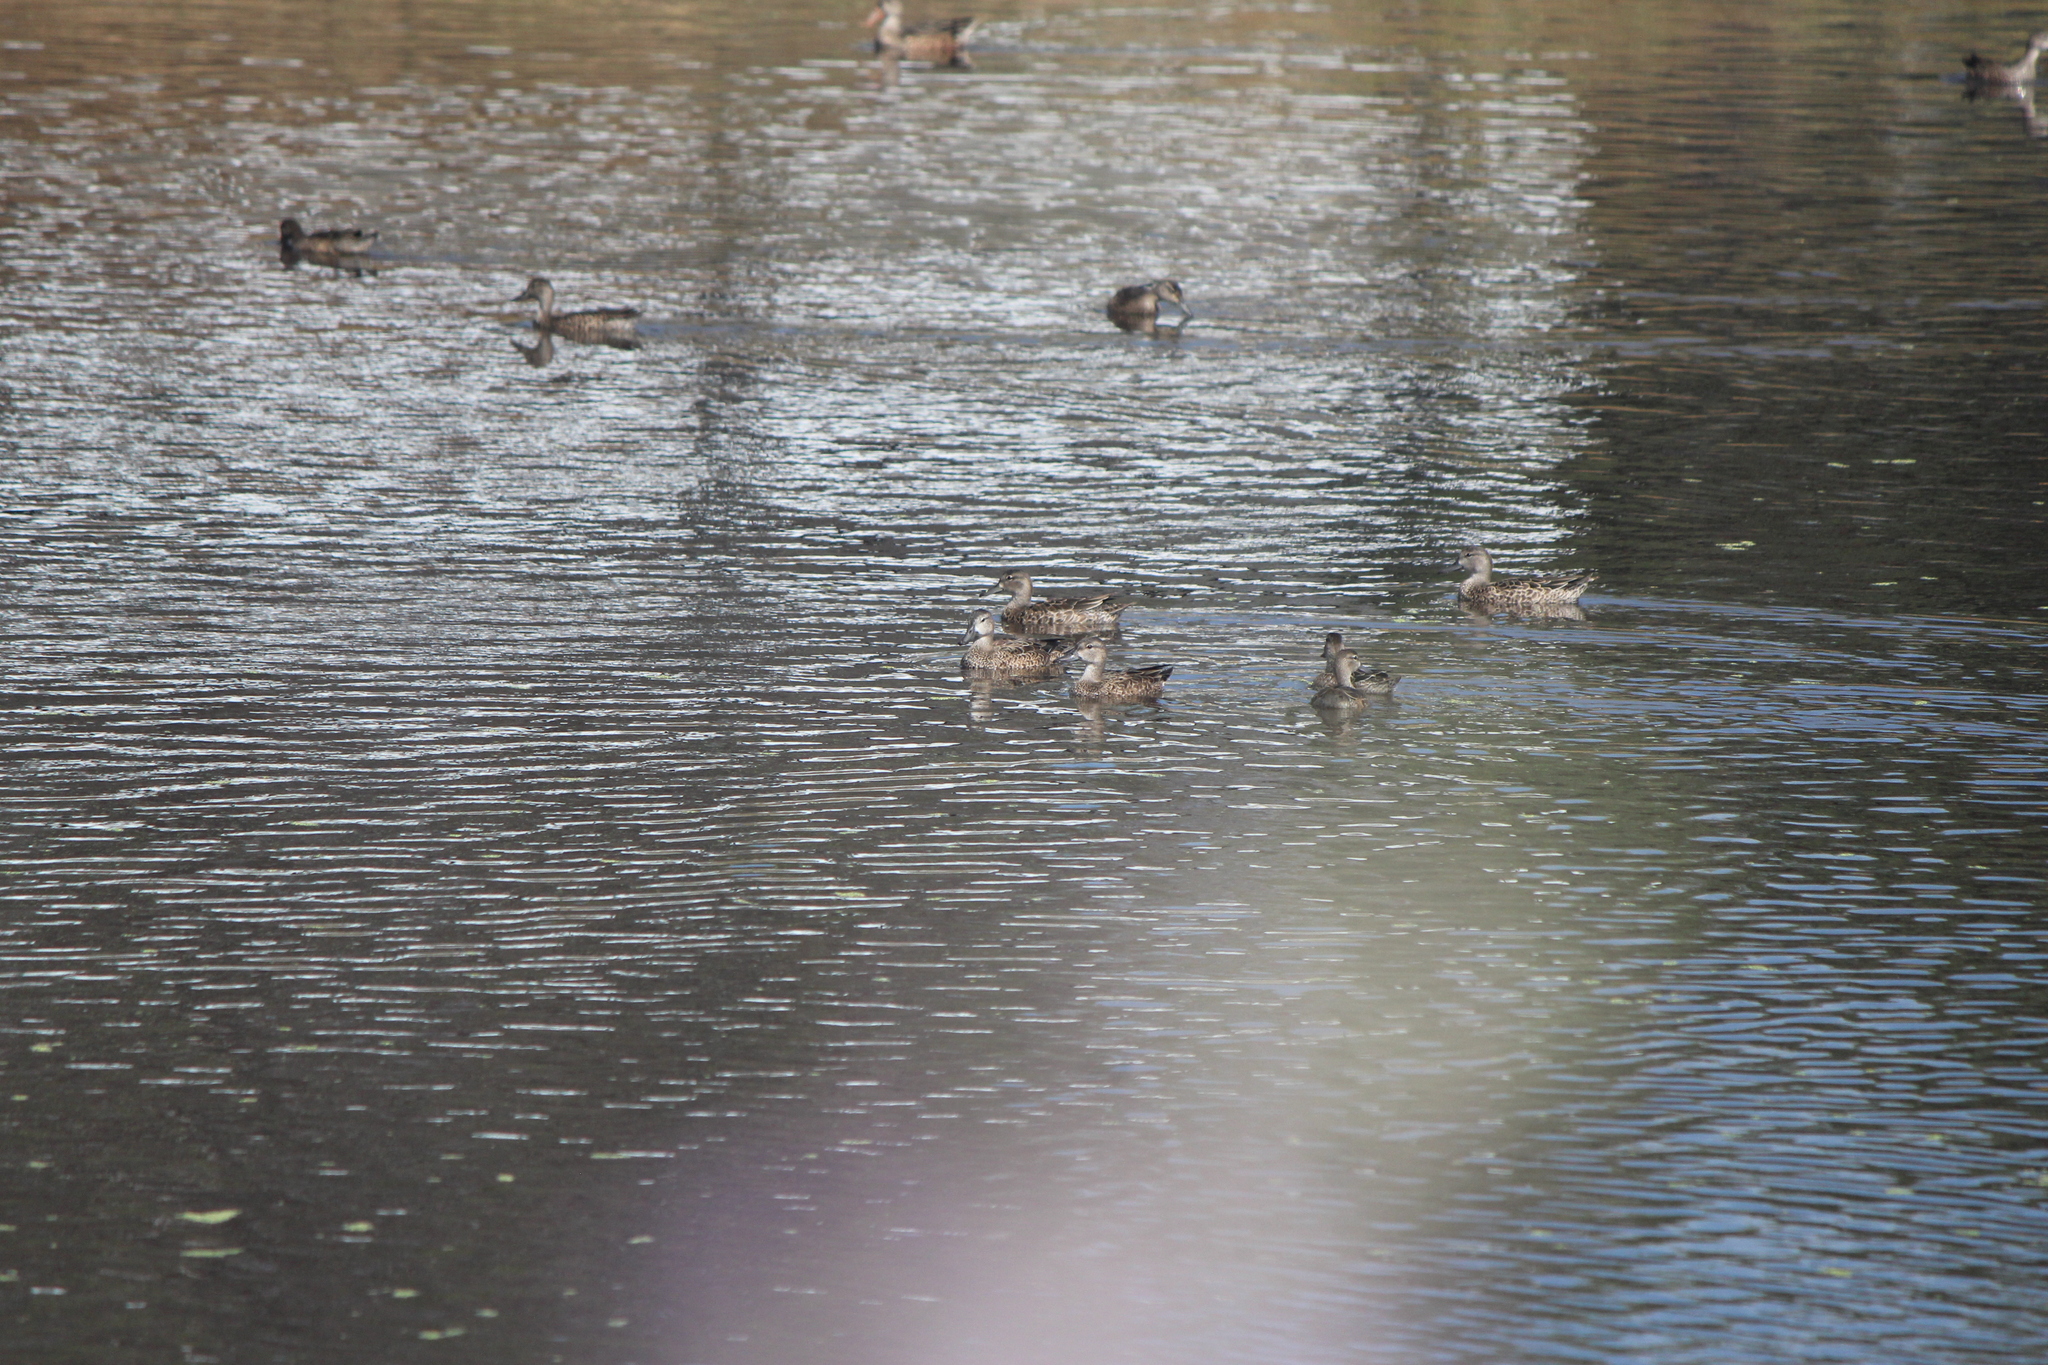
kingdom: Animalia
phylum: Chordata
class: Aves
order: Anseriformes
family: Anatidae
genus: Spatula
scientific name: Spatula discors
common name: Blue-winged teal
